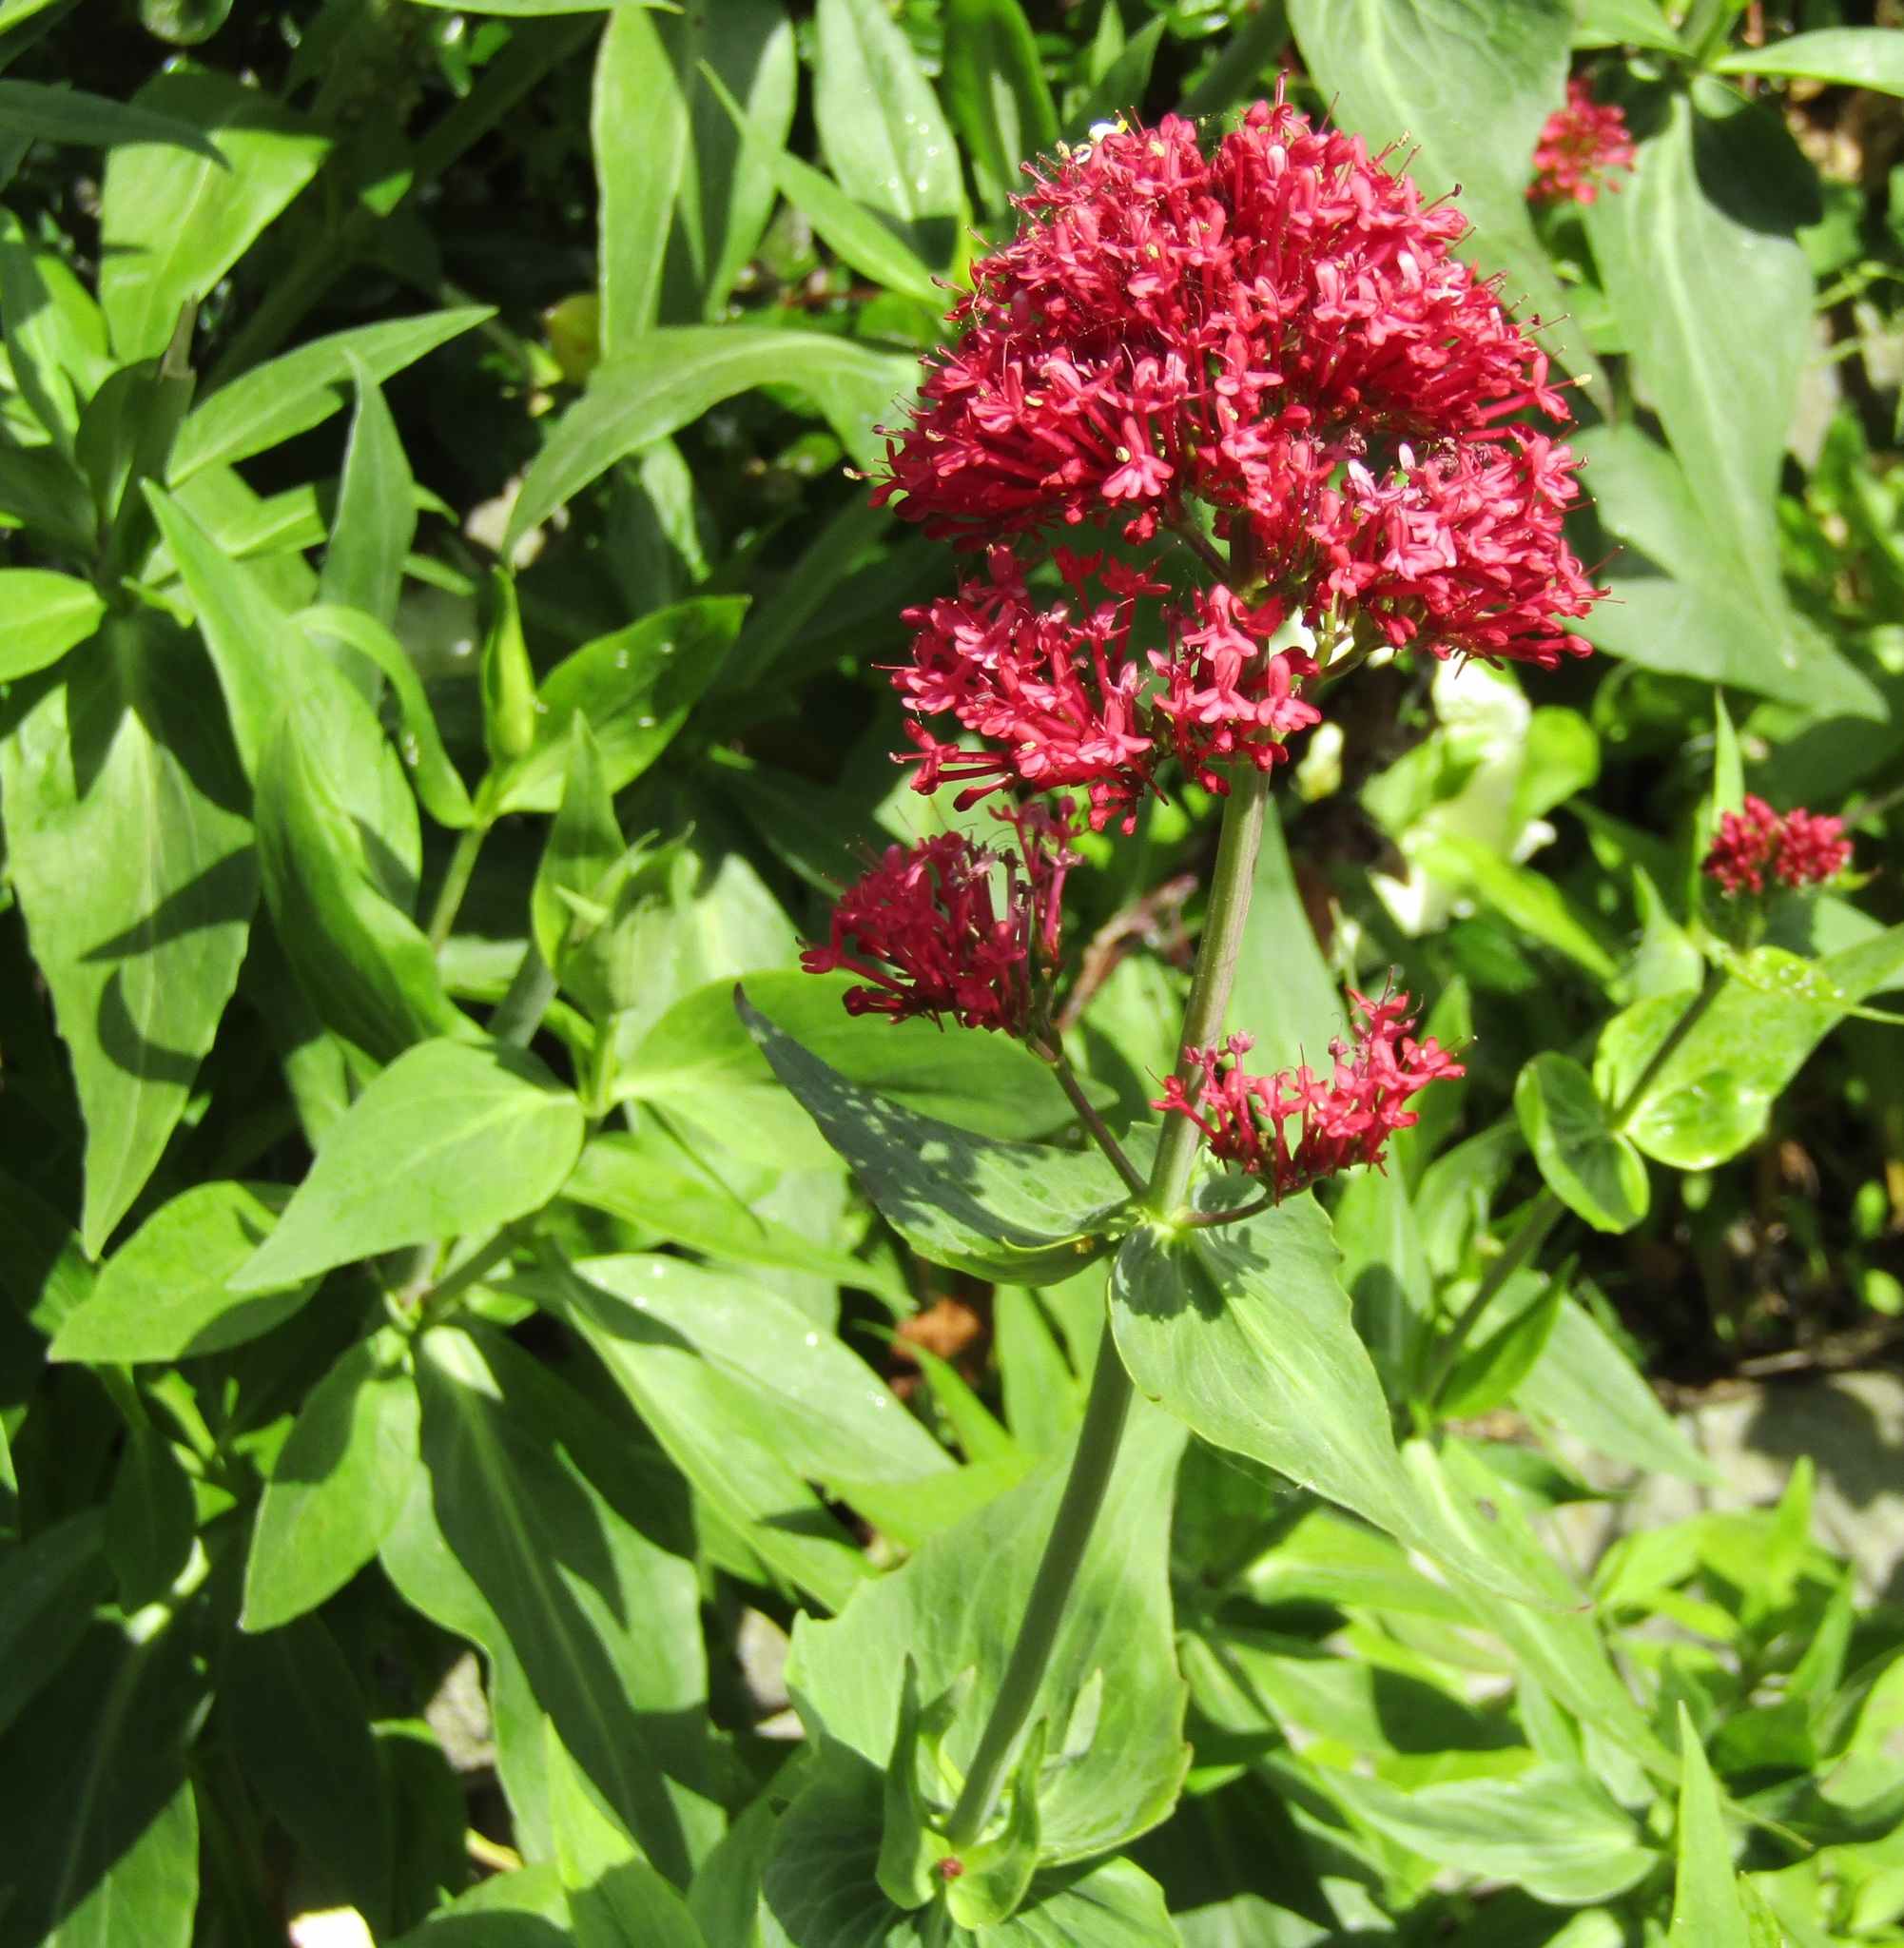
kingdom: Plantae
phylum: Tracheophyta
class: Magnoliopsida
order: Dipsacales
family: Caprifoliaceae
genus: Centranthus
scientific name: Centranthus ruber
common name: Red valerian
